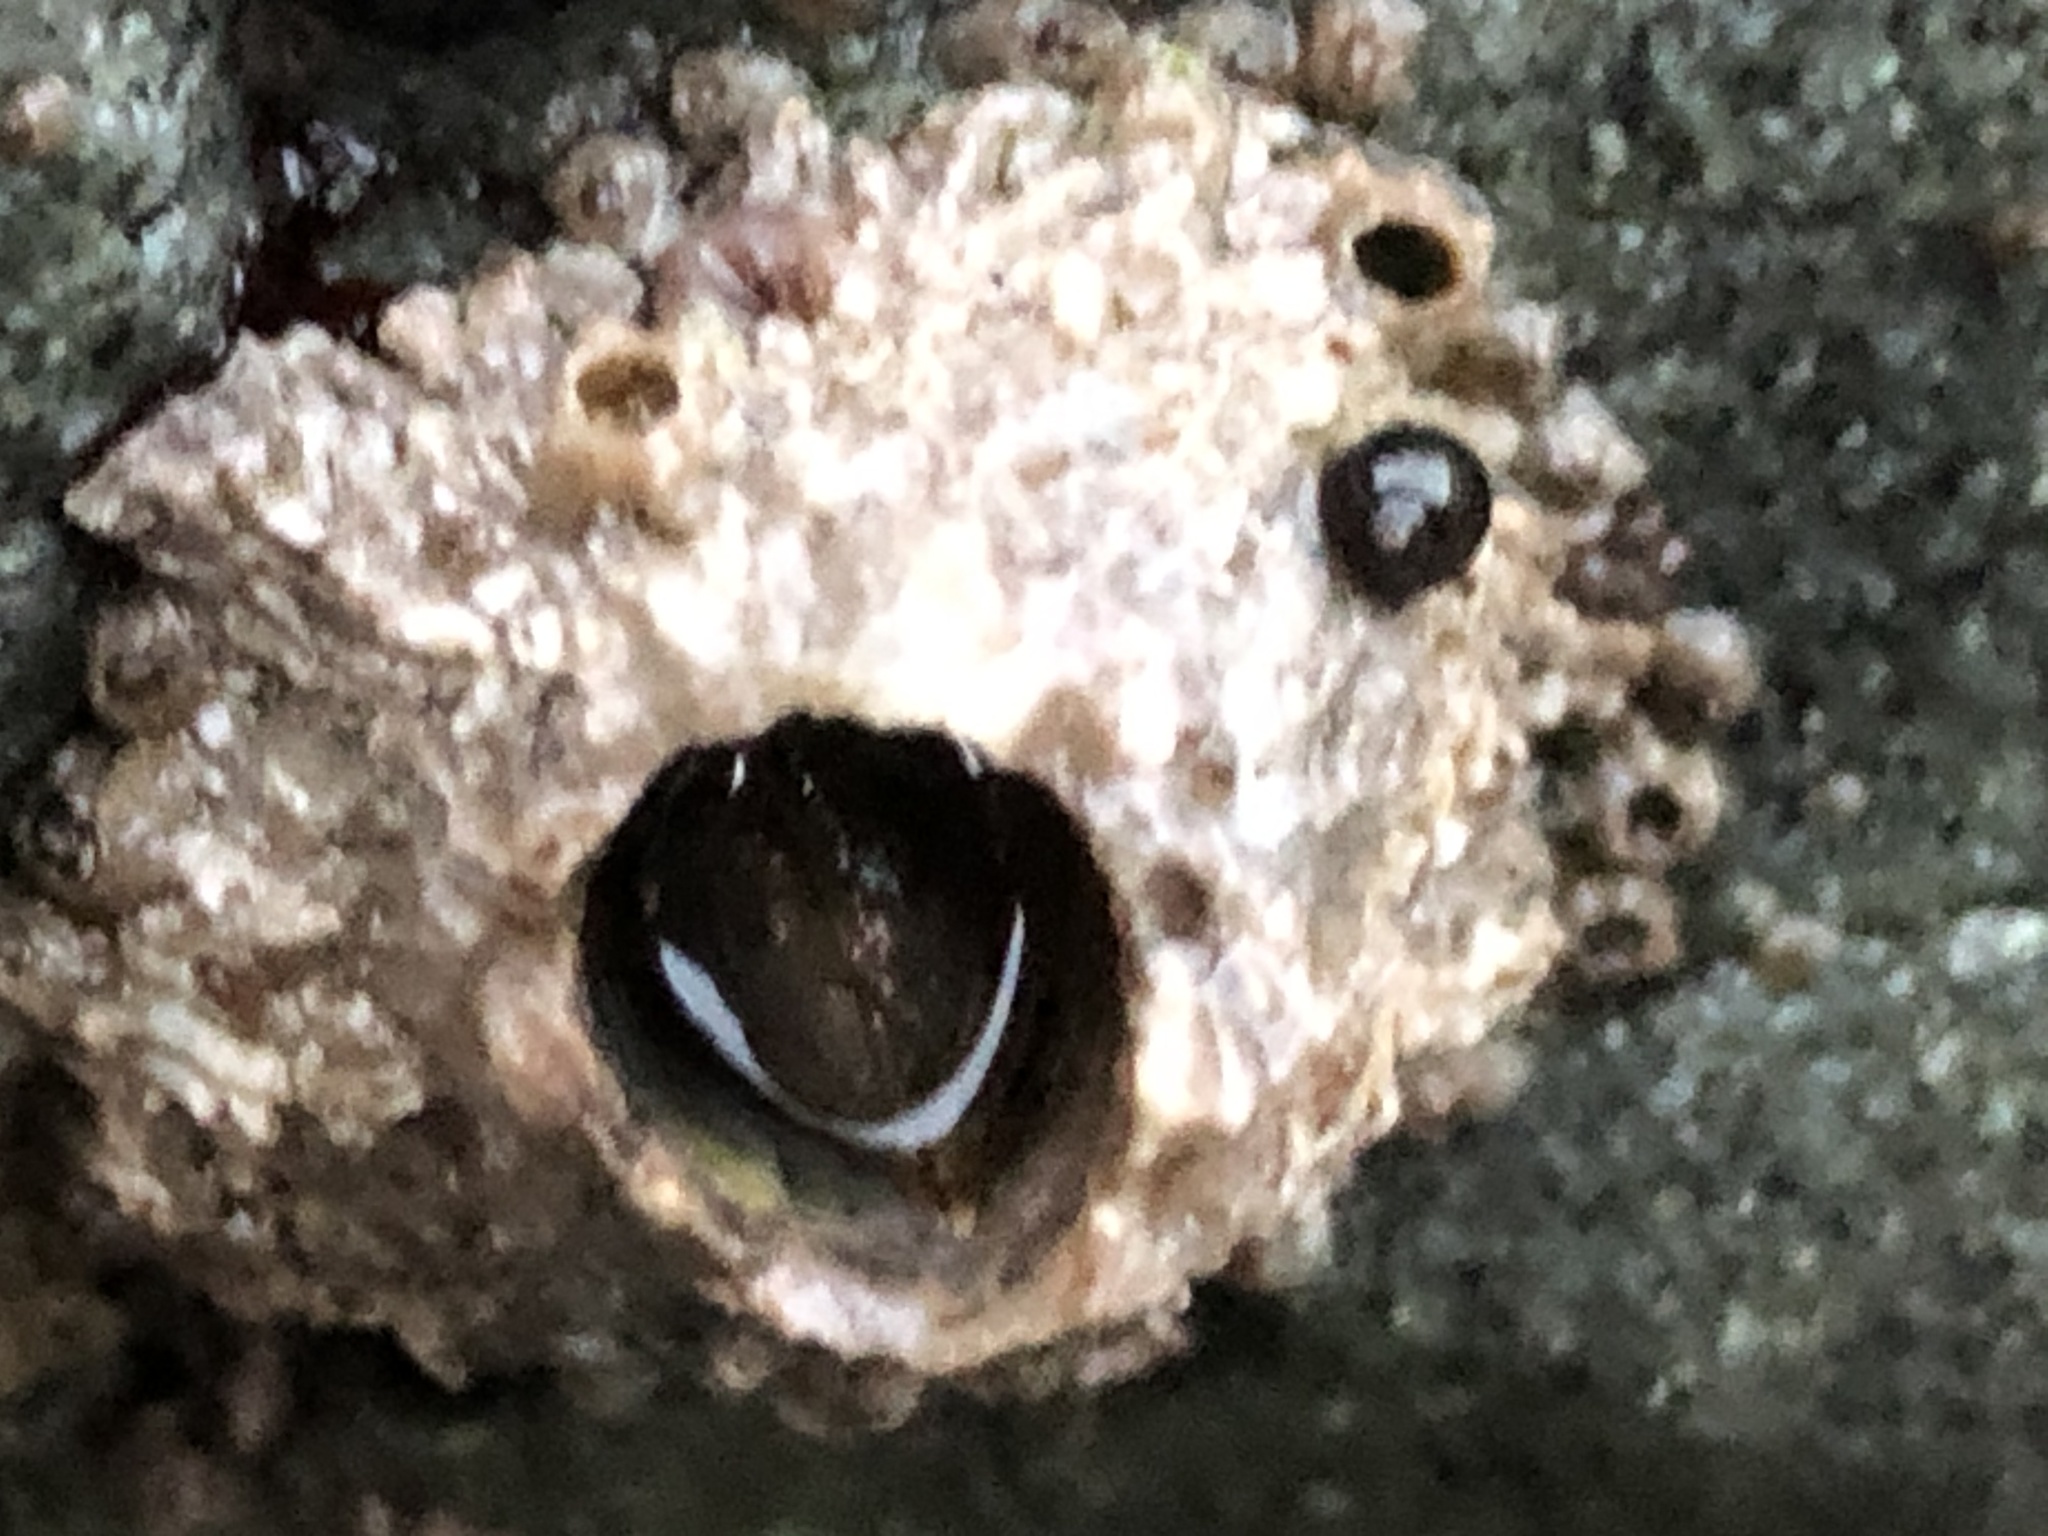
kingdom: Animalia
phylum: Arthropoda
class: Maxillopoda
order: Sessilia
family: Archaeobalanidae
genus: Semibalanus
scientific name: Semibalanus cariosus
